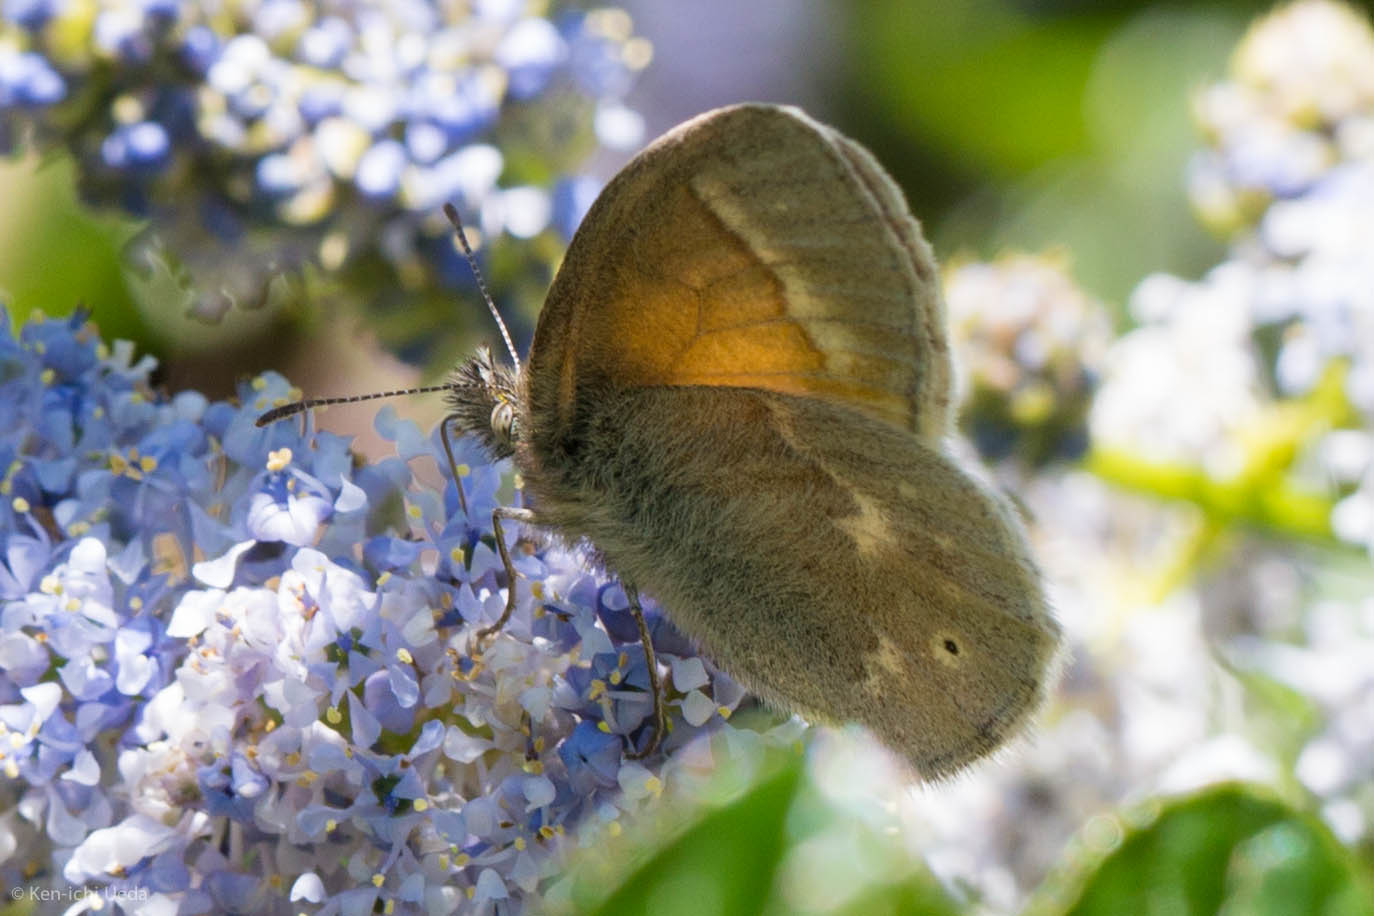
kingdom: Animalia
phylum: Arthropoda
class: Insecta
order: Lepidoptera
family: Nymphalidae
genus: Coenonympha
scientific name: Coenonympha california
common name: Common ringlet
